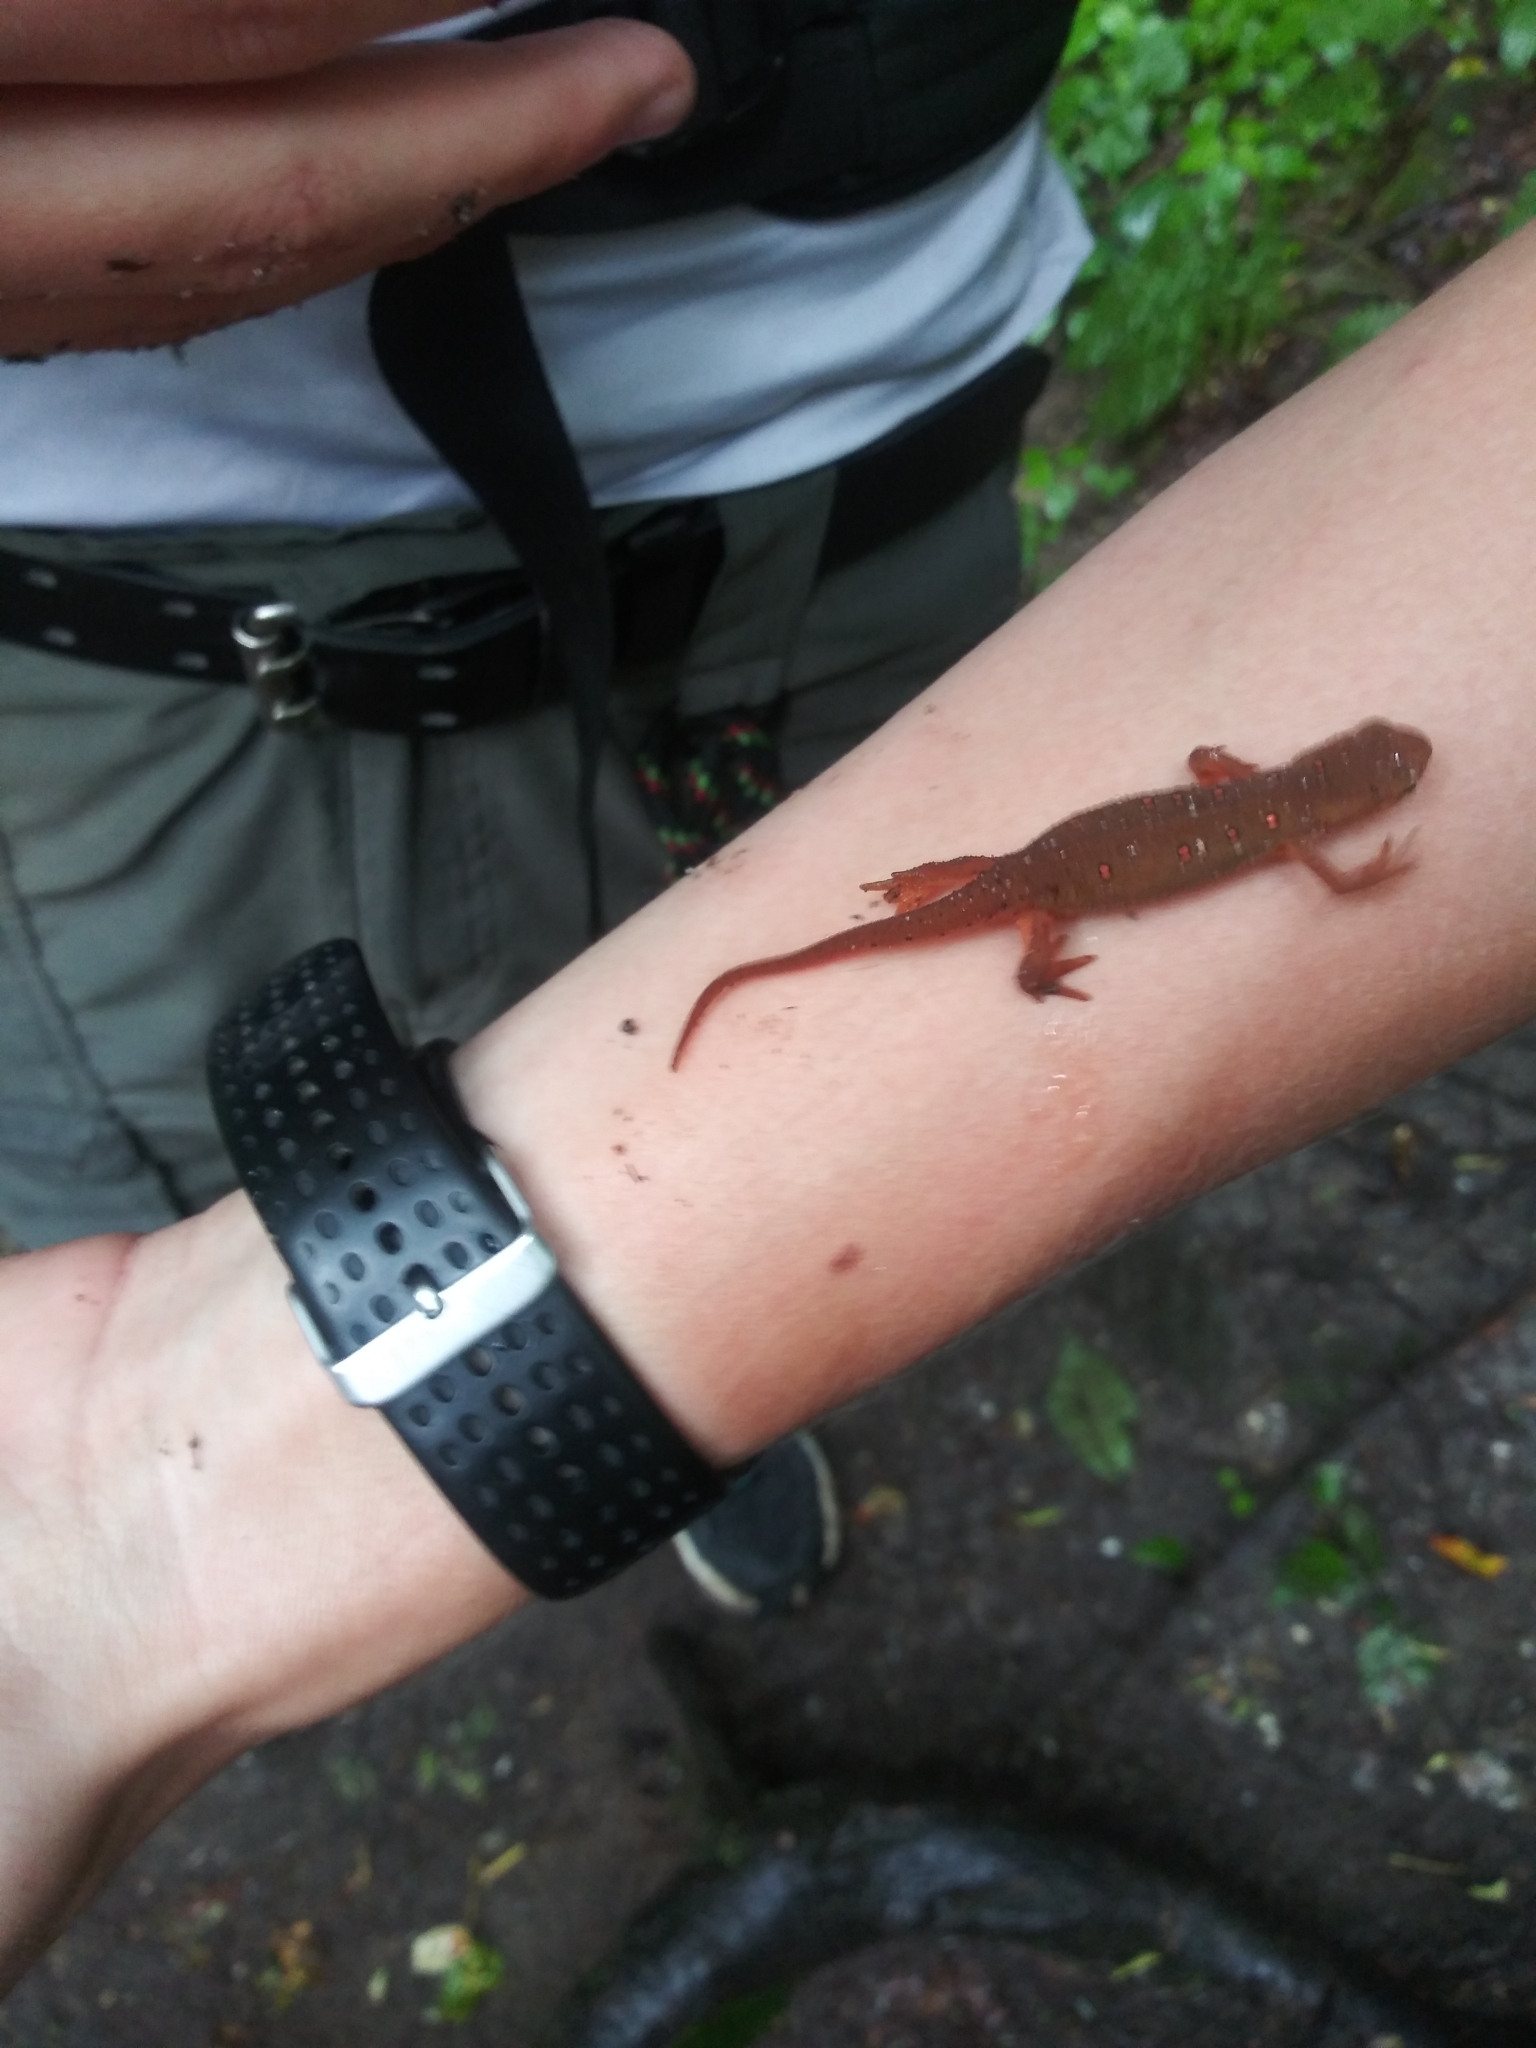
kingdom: Animalia
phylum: Chordata
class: Amphibia
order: Caudata
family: Salamandridae
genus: Notophthalmus
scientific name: Notophthalmus viridescens
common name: Eastern newt
